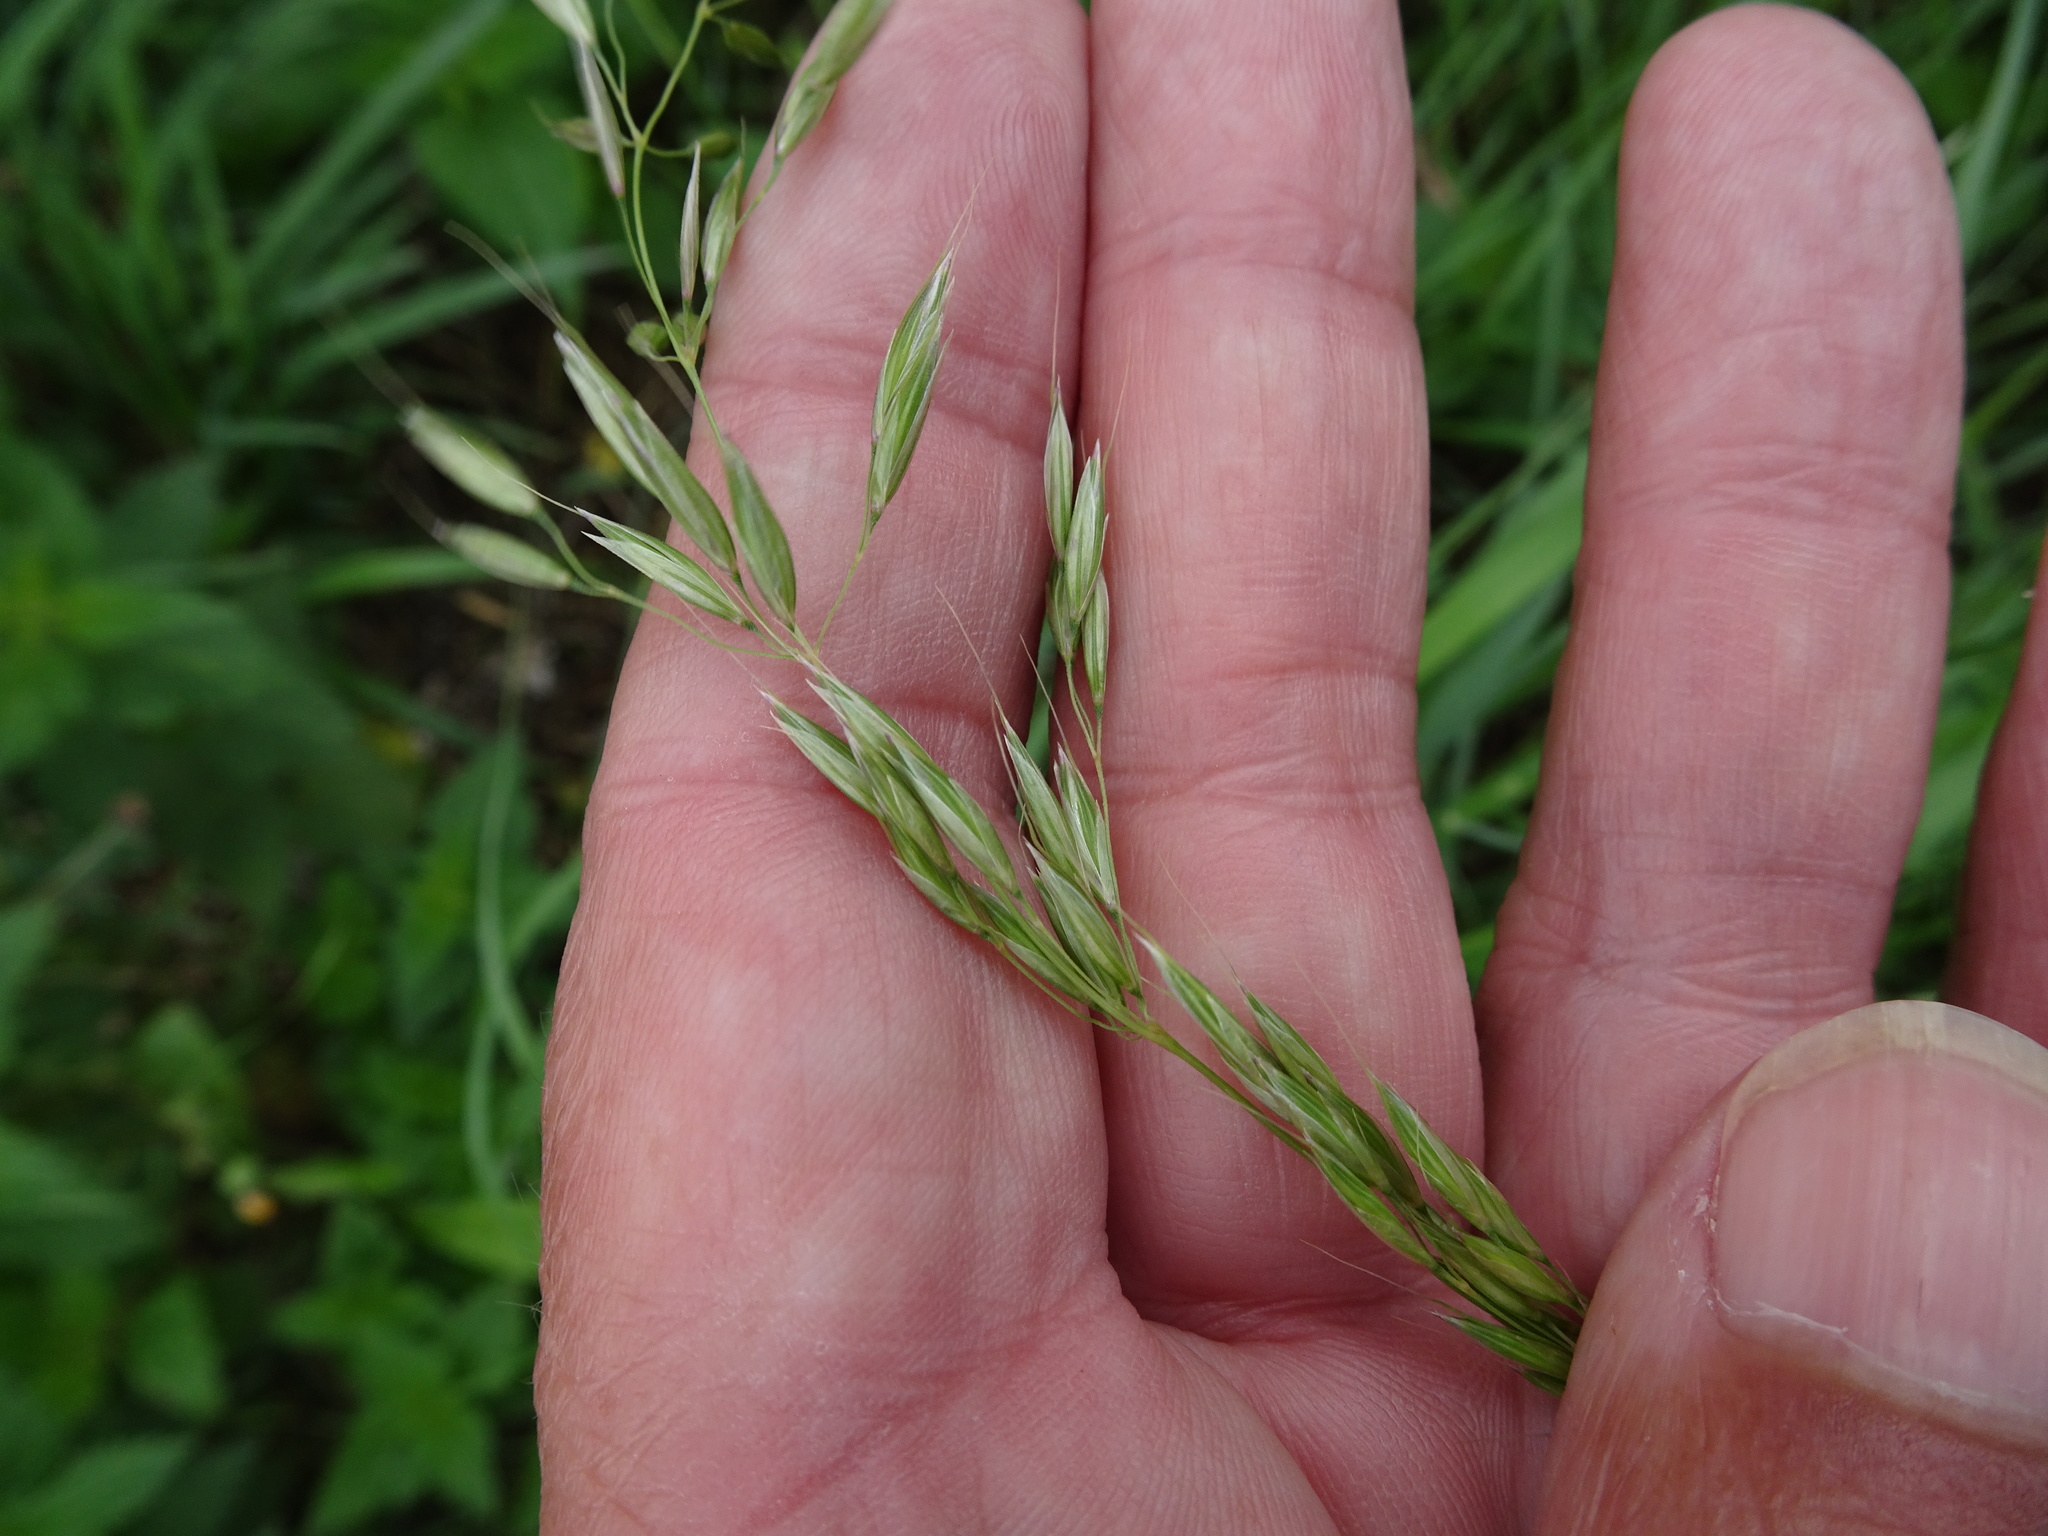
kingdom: Plantae
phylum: Tracheophyta
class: Liliopsida
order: Poales
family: Poaceae
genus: Arrhenatherum
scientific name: Arrhenatherum elatius
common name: Tall oatgrass
